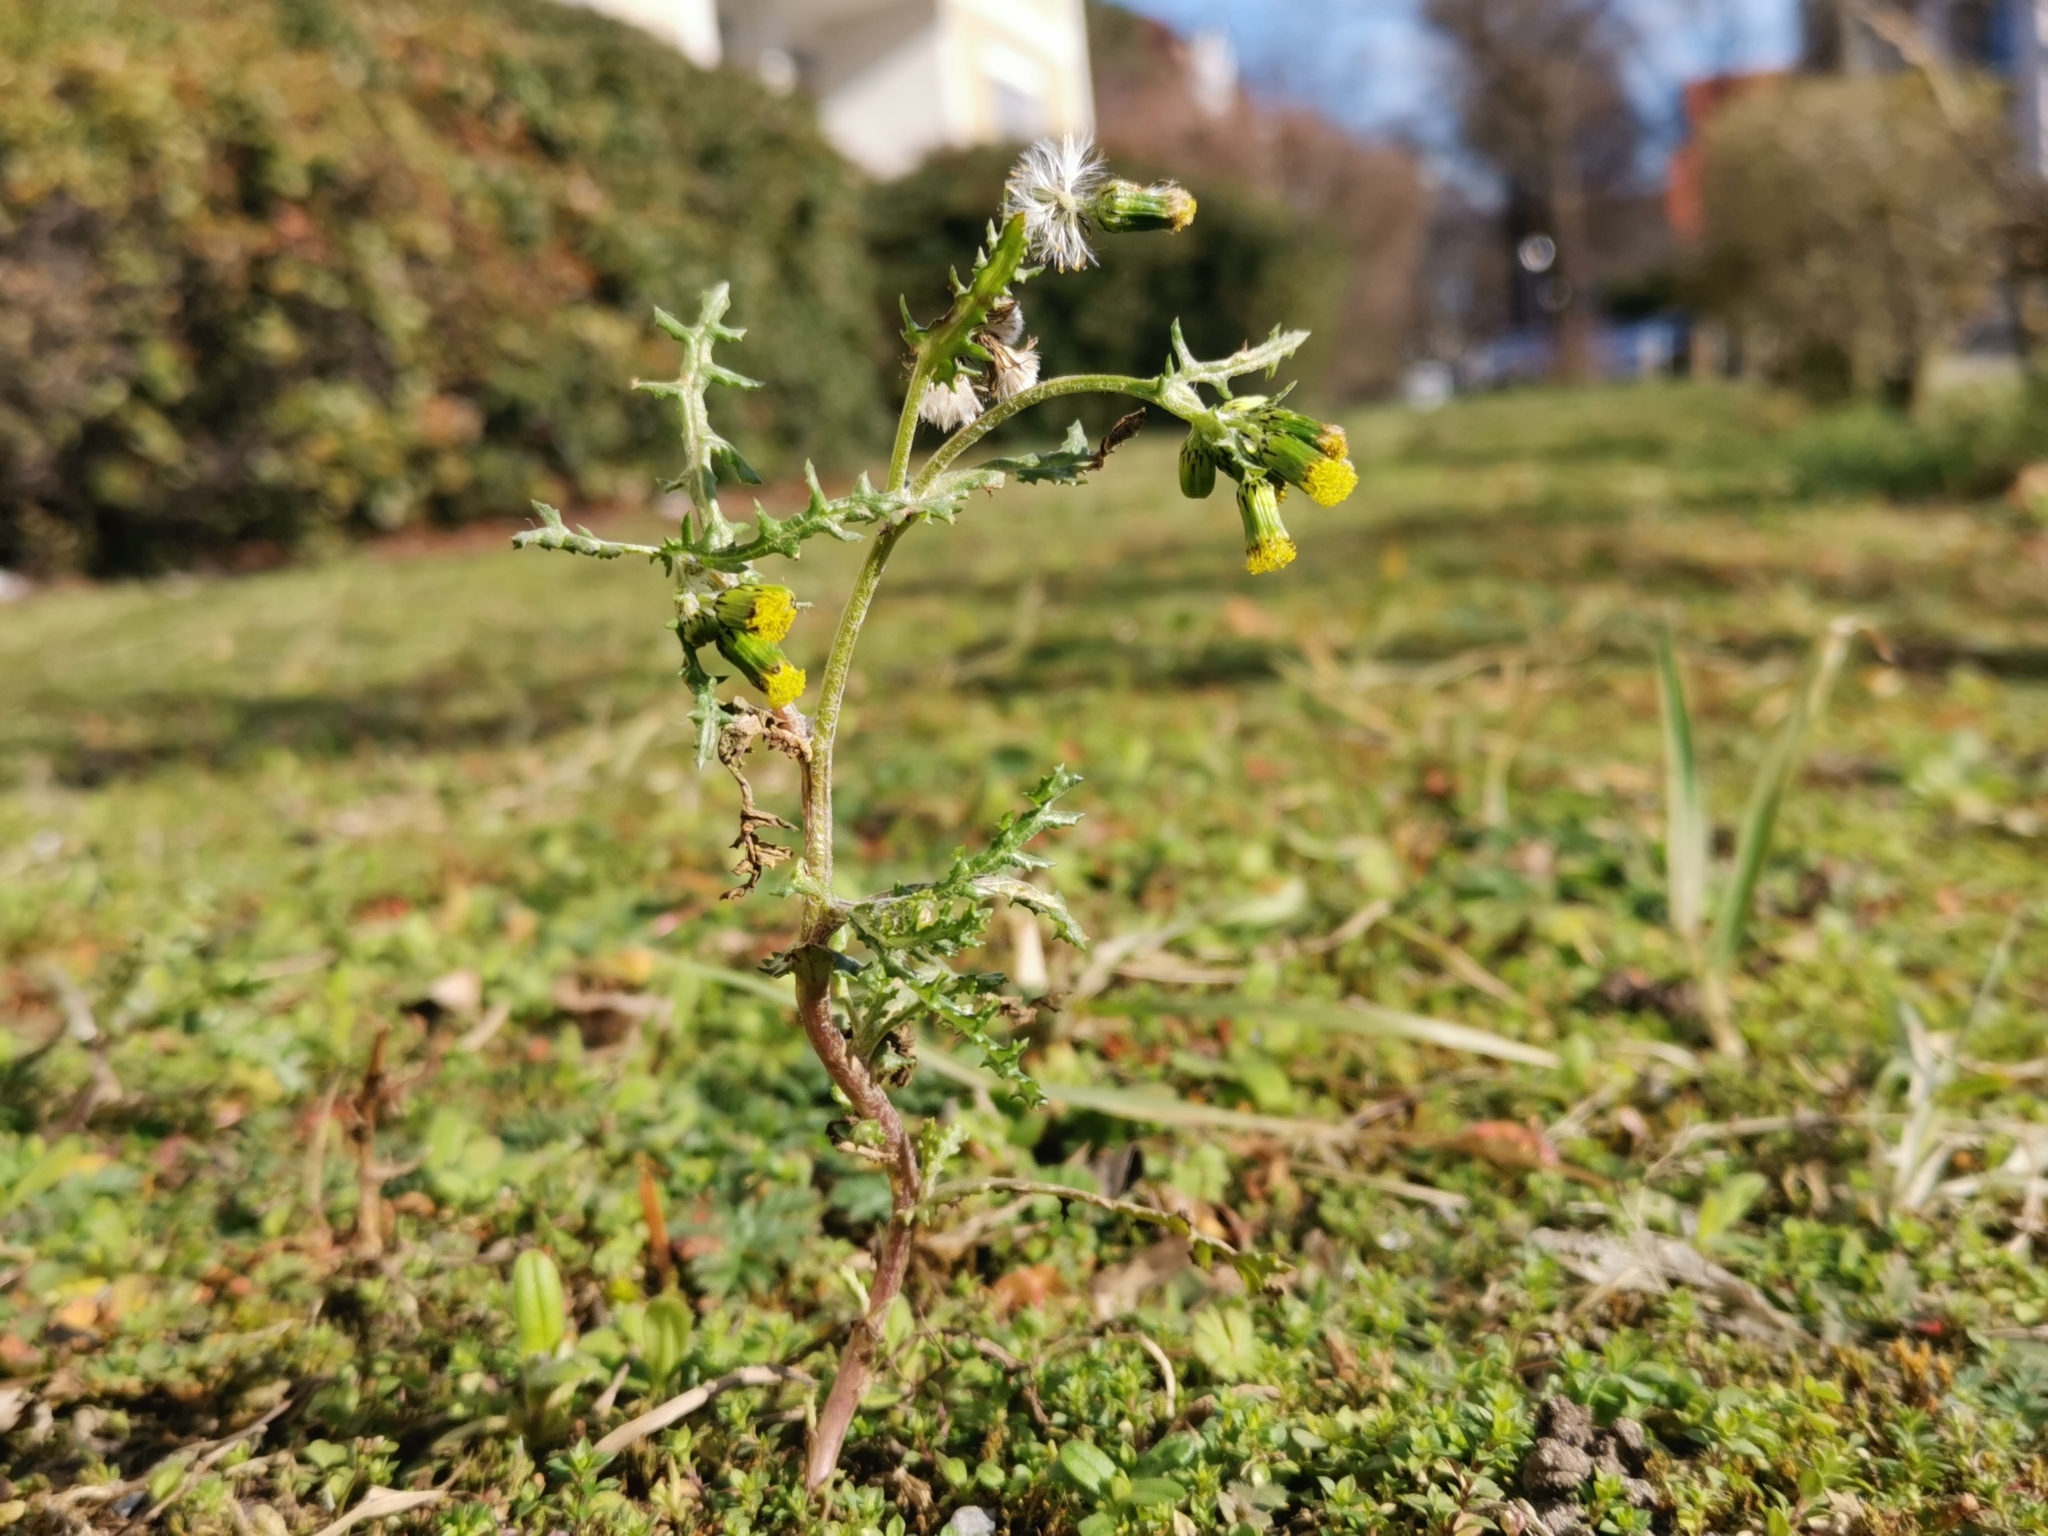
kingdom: Plantae
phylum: Tracheophyta
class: Magnoliopsida
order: Asterales
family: Asteraceae
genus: Senecio
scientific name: Senecio vulgaris
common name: Old-man-in-the-spring
